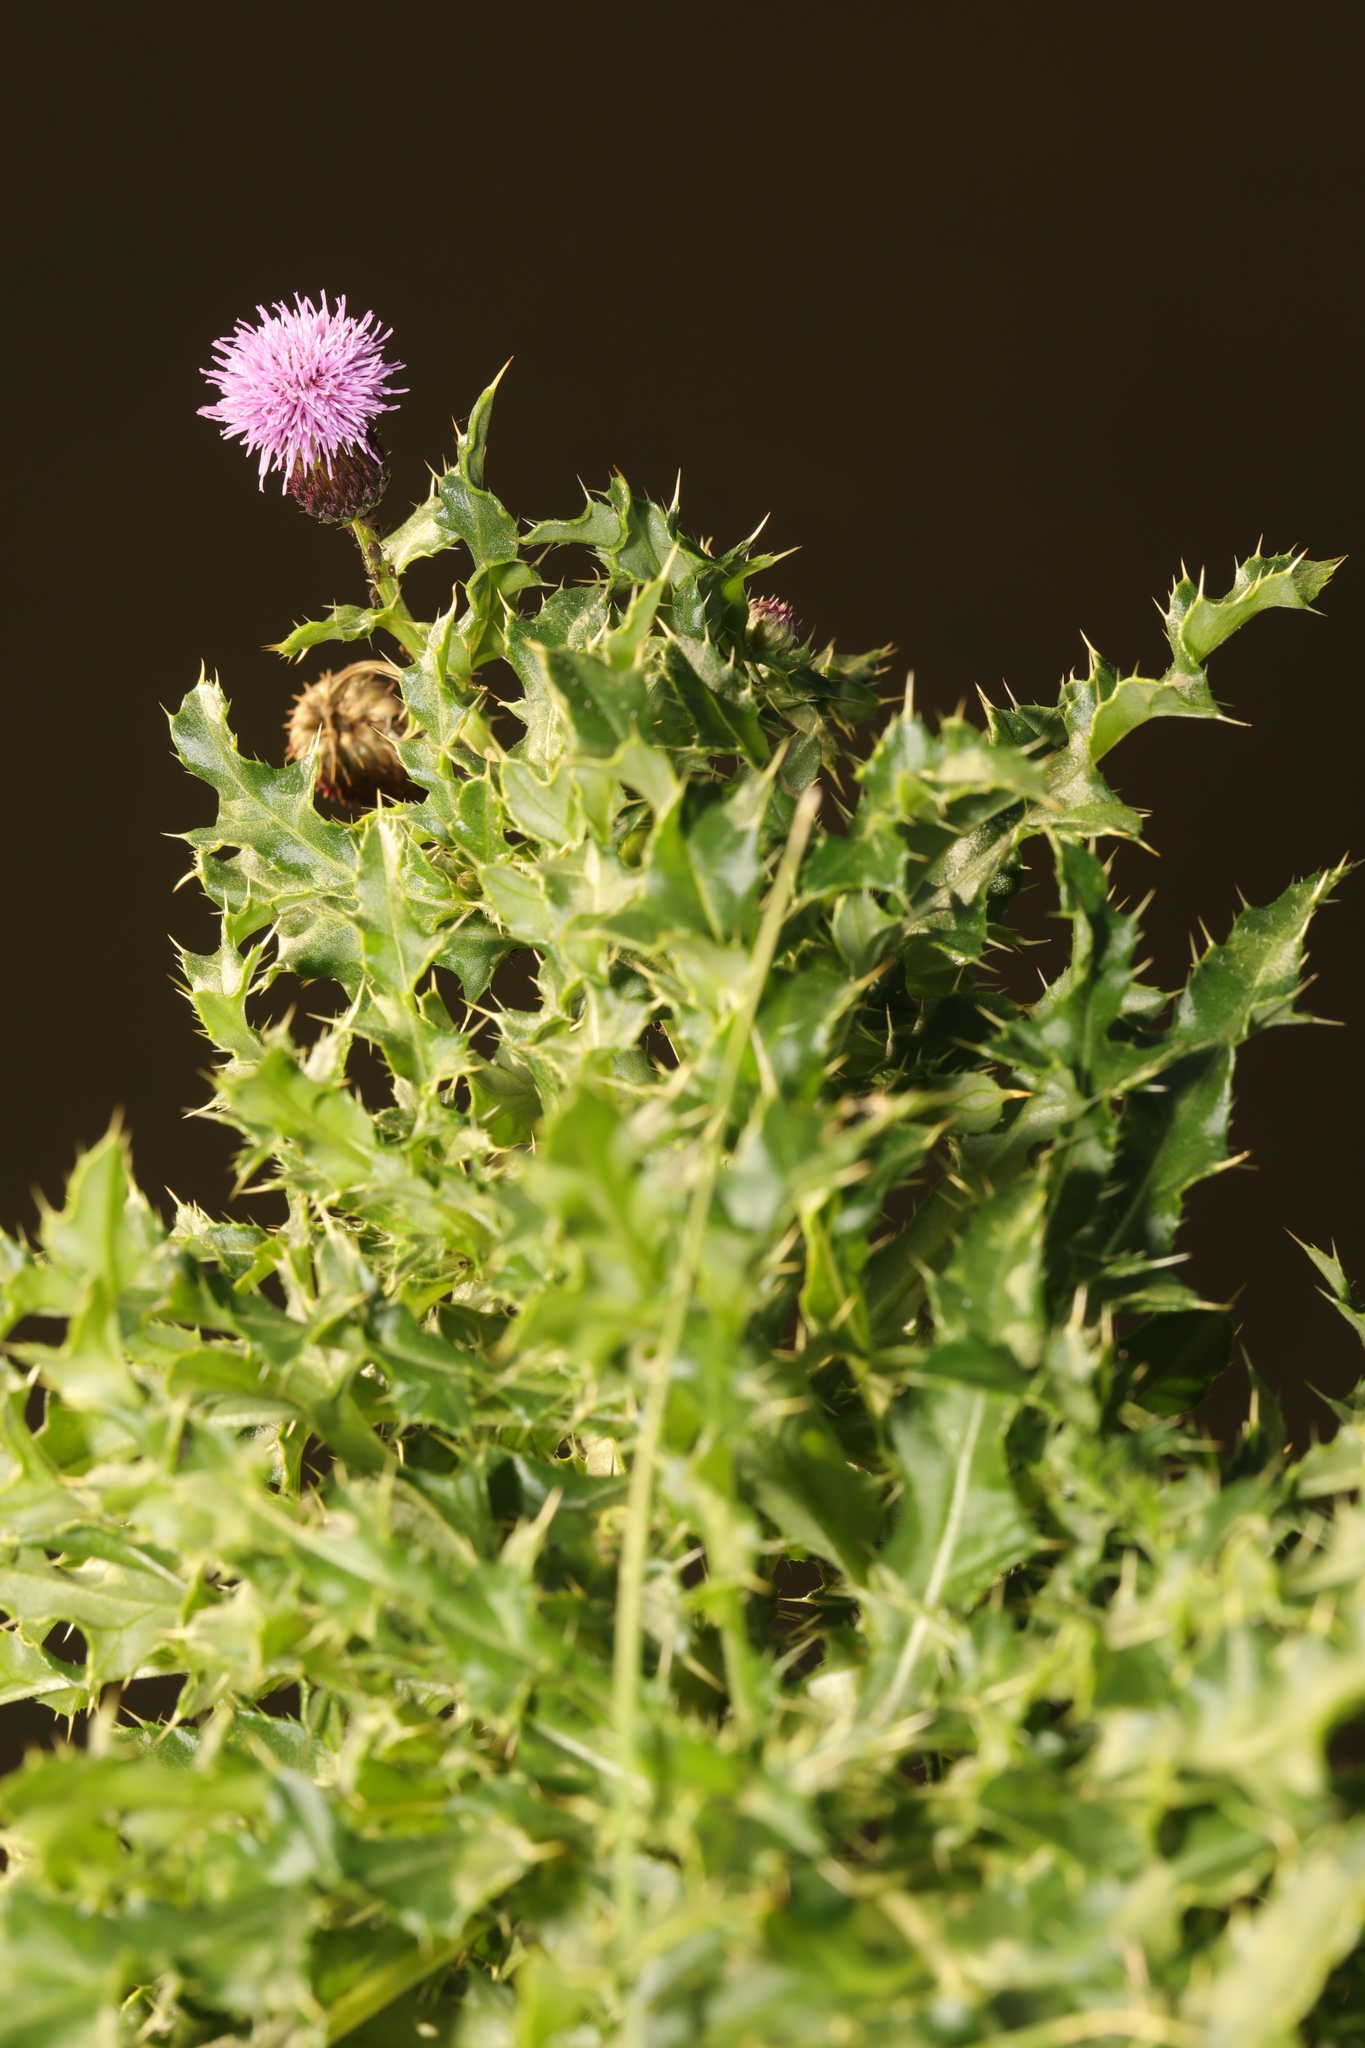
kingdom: Plantae
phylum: Tracheophyta
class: Magnoliopsida
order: Asterales
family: Asteraceae
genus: Cirsium
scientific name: Cirsium arvense
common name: Creeping thistle
